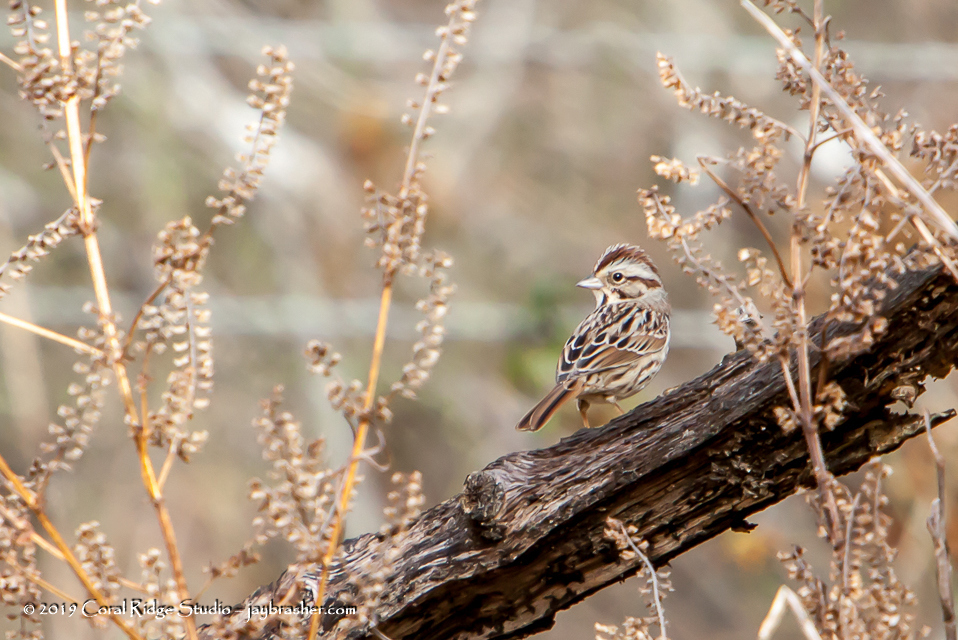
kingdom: Animalia
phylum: Chordata
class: Aves
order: Passeriformes
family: Passerellidae
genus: Melospiza
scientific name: Melospiza melodia
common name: Song sparrow
